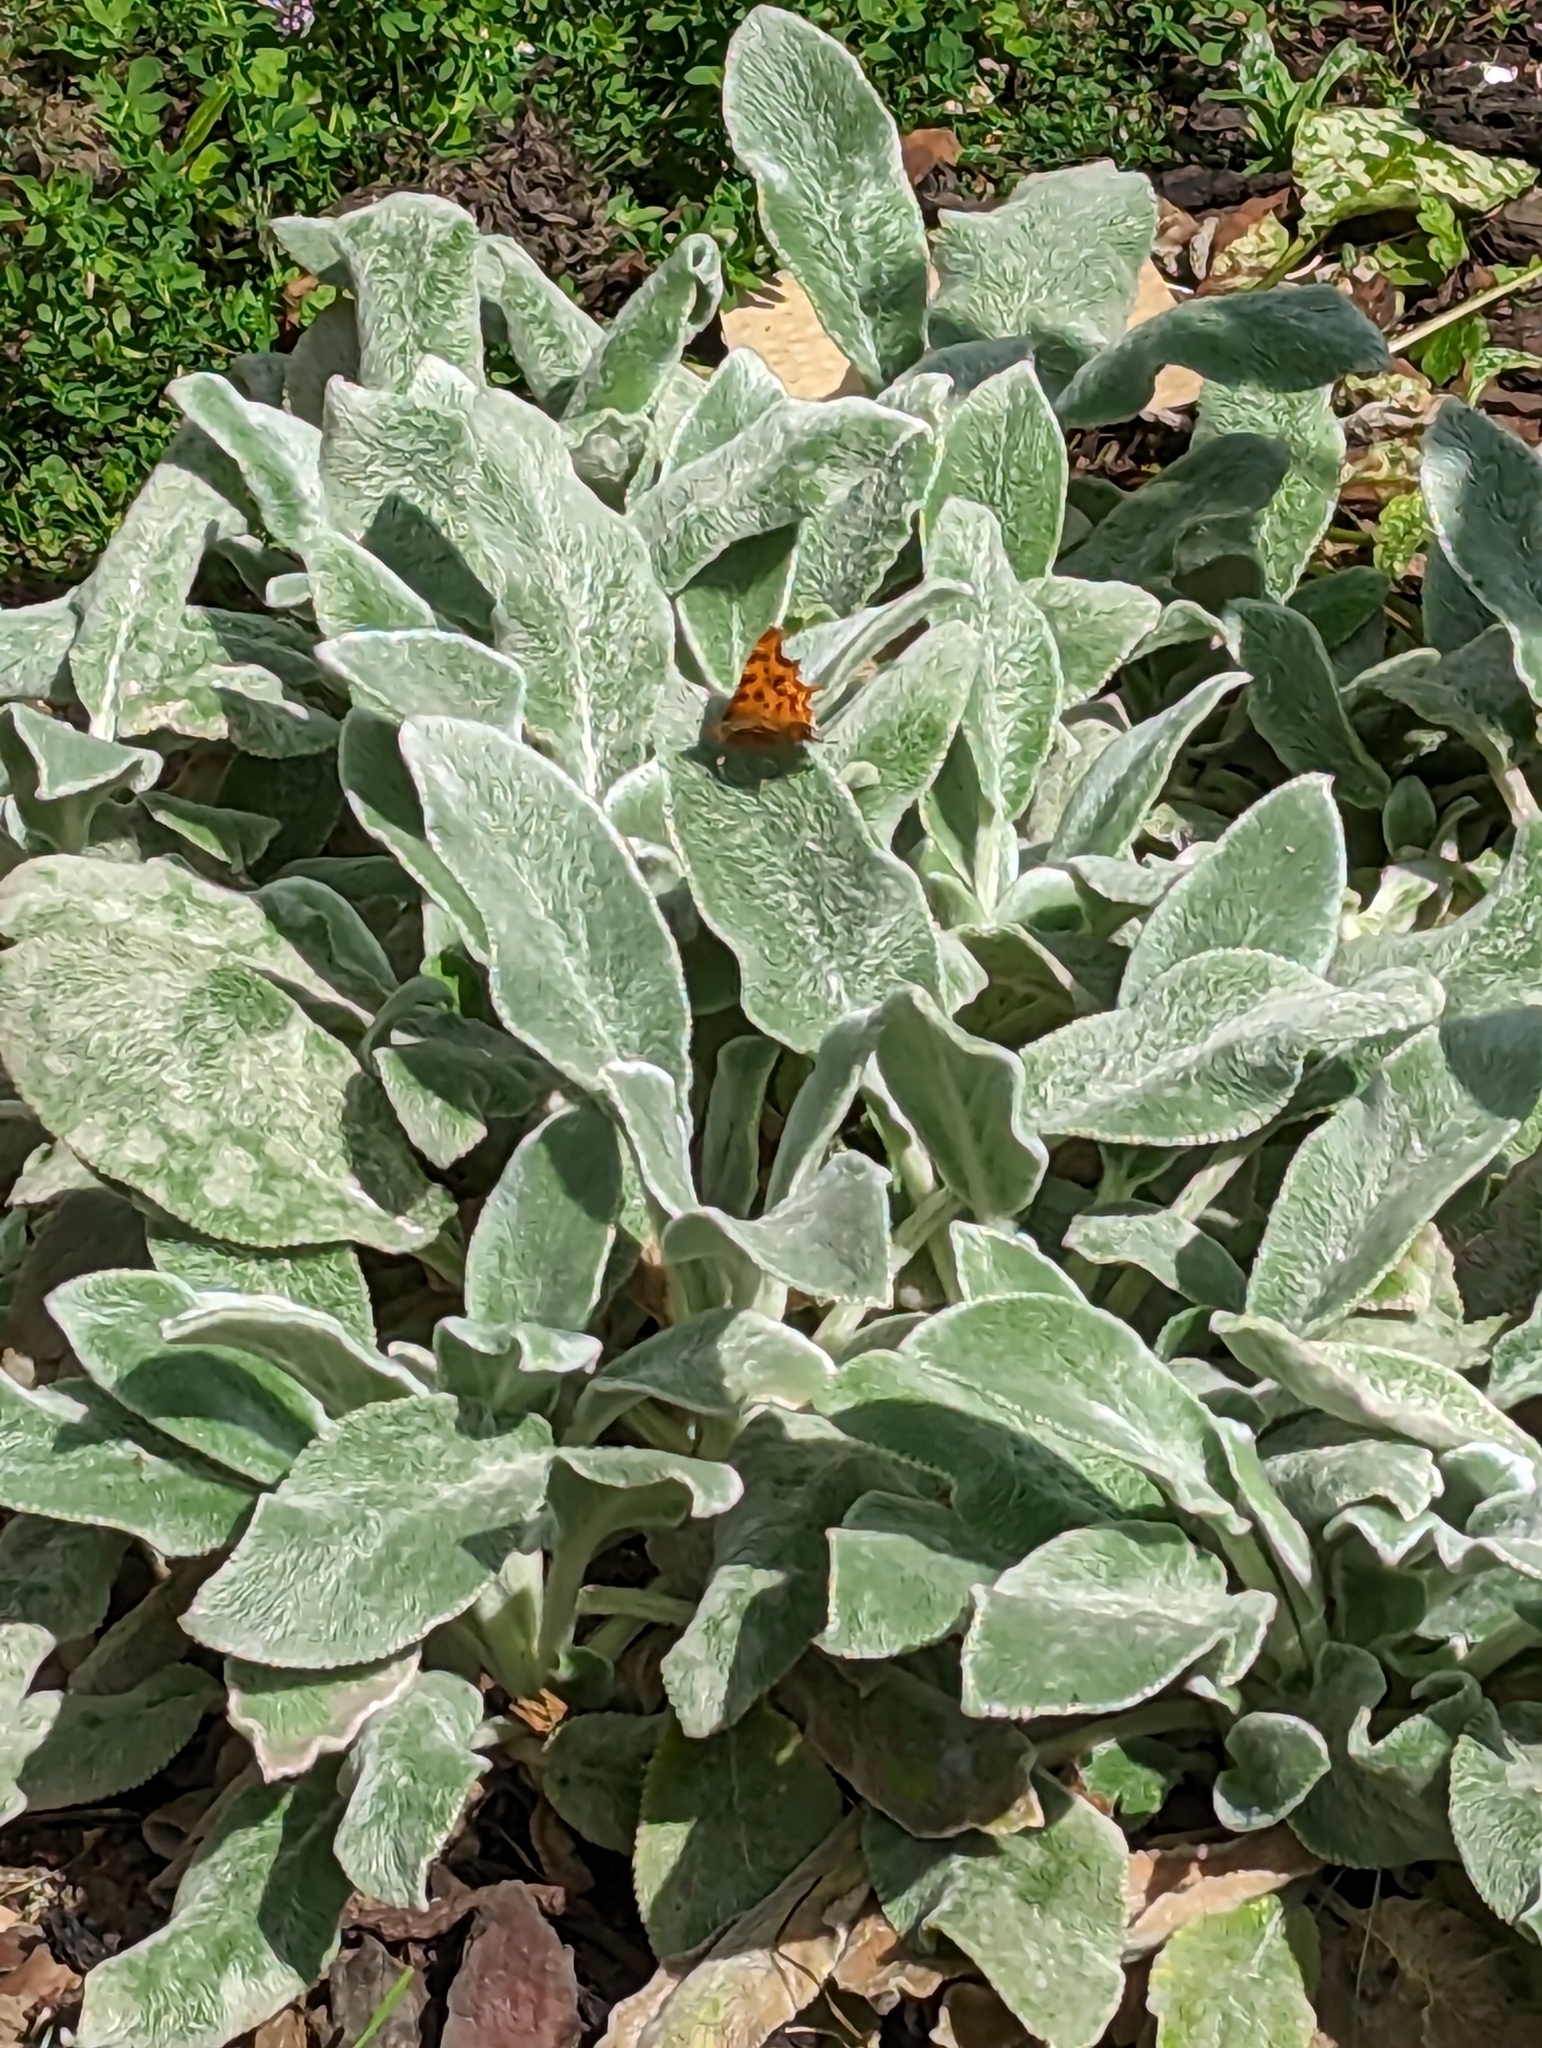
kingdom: Animalia
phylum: Arthropoda
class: Insecta
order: Lepidoptera
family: Nymphalidae
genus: Polygonia
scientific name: Polygonia c-album
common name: Comma
